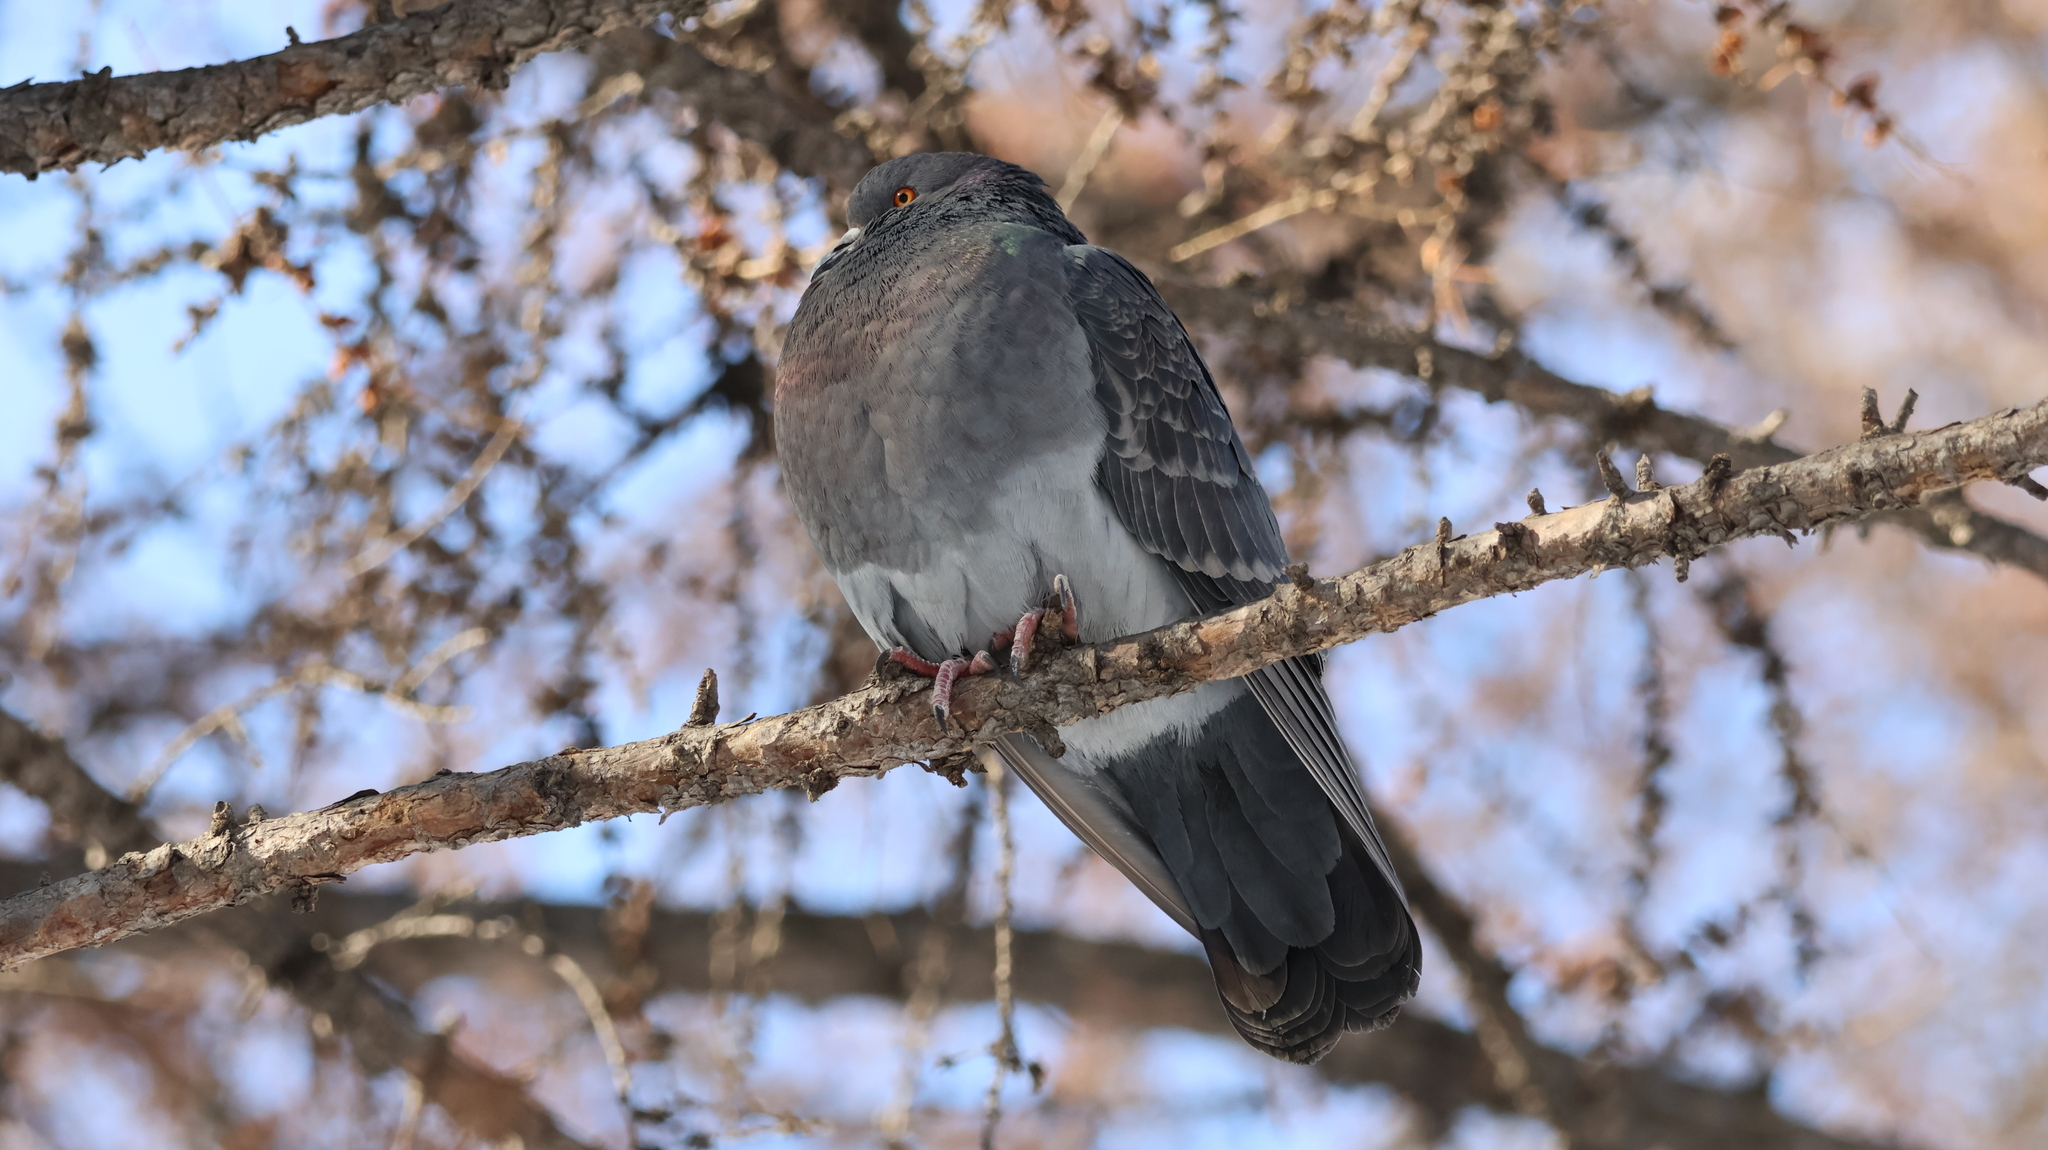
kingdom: Animalia
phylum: Chordata
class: Aves
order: Columbiformes
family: Columbidae
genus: Columba
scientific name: Columba livia
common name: Rock pigeon
